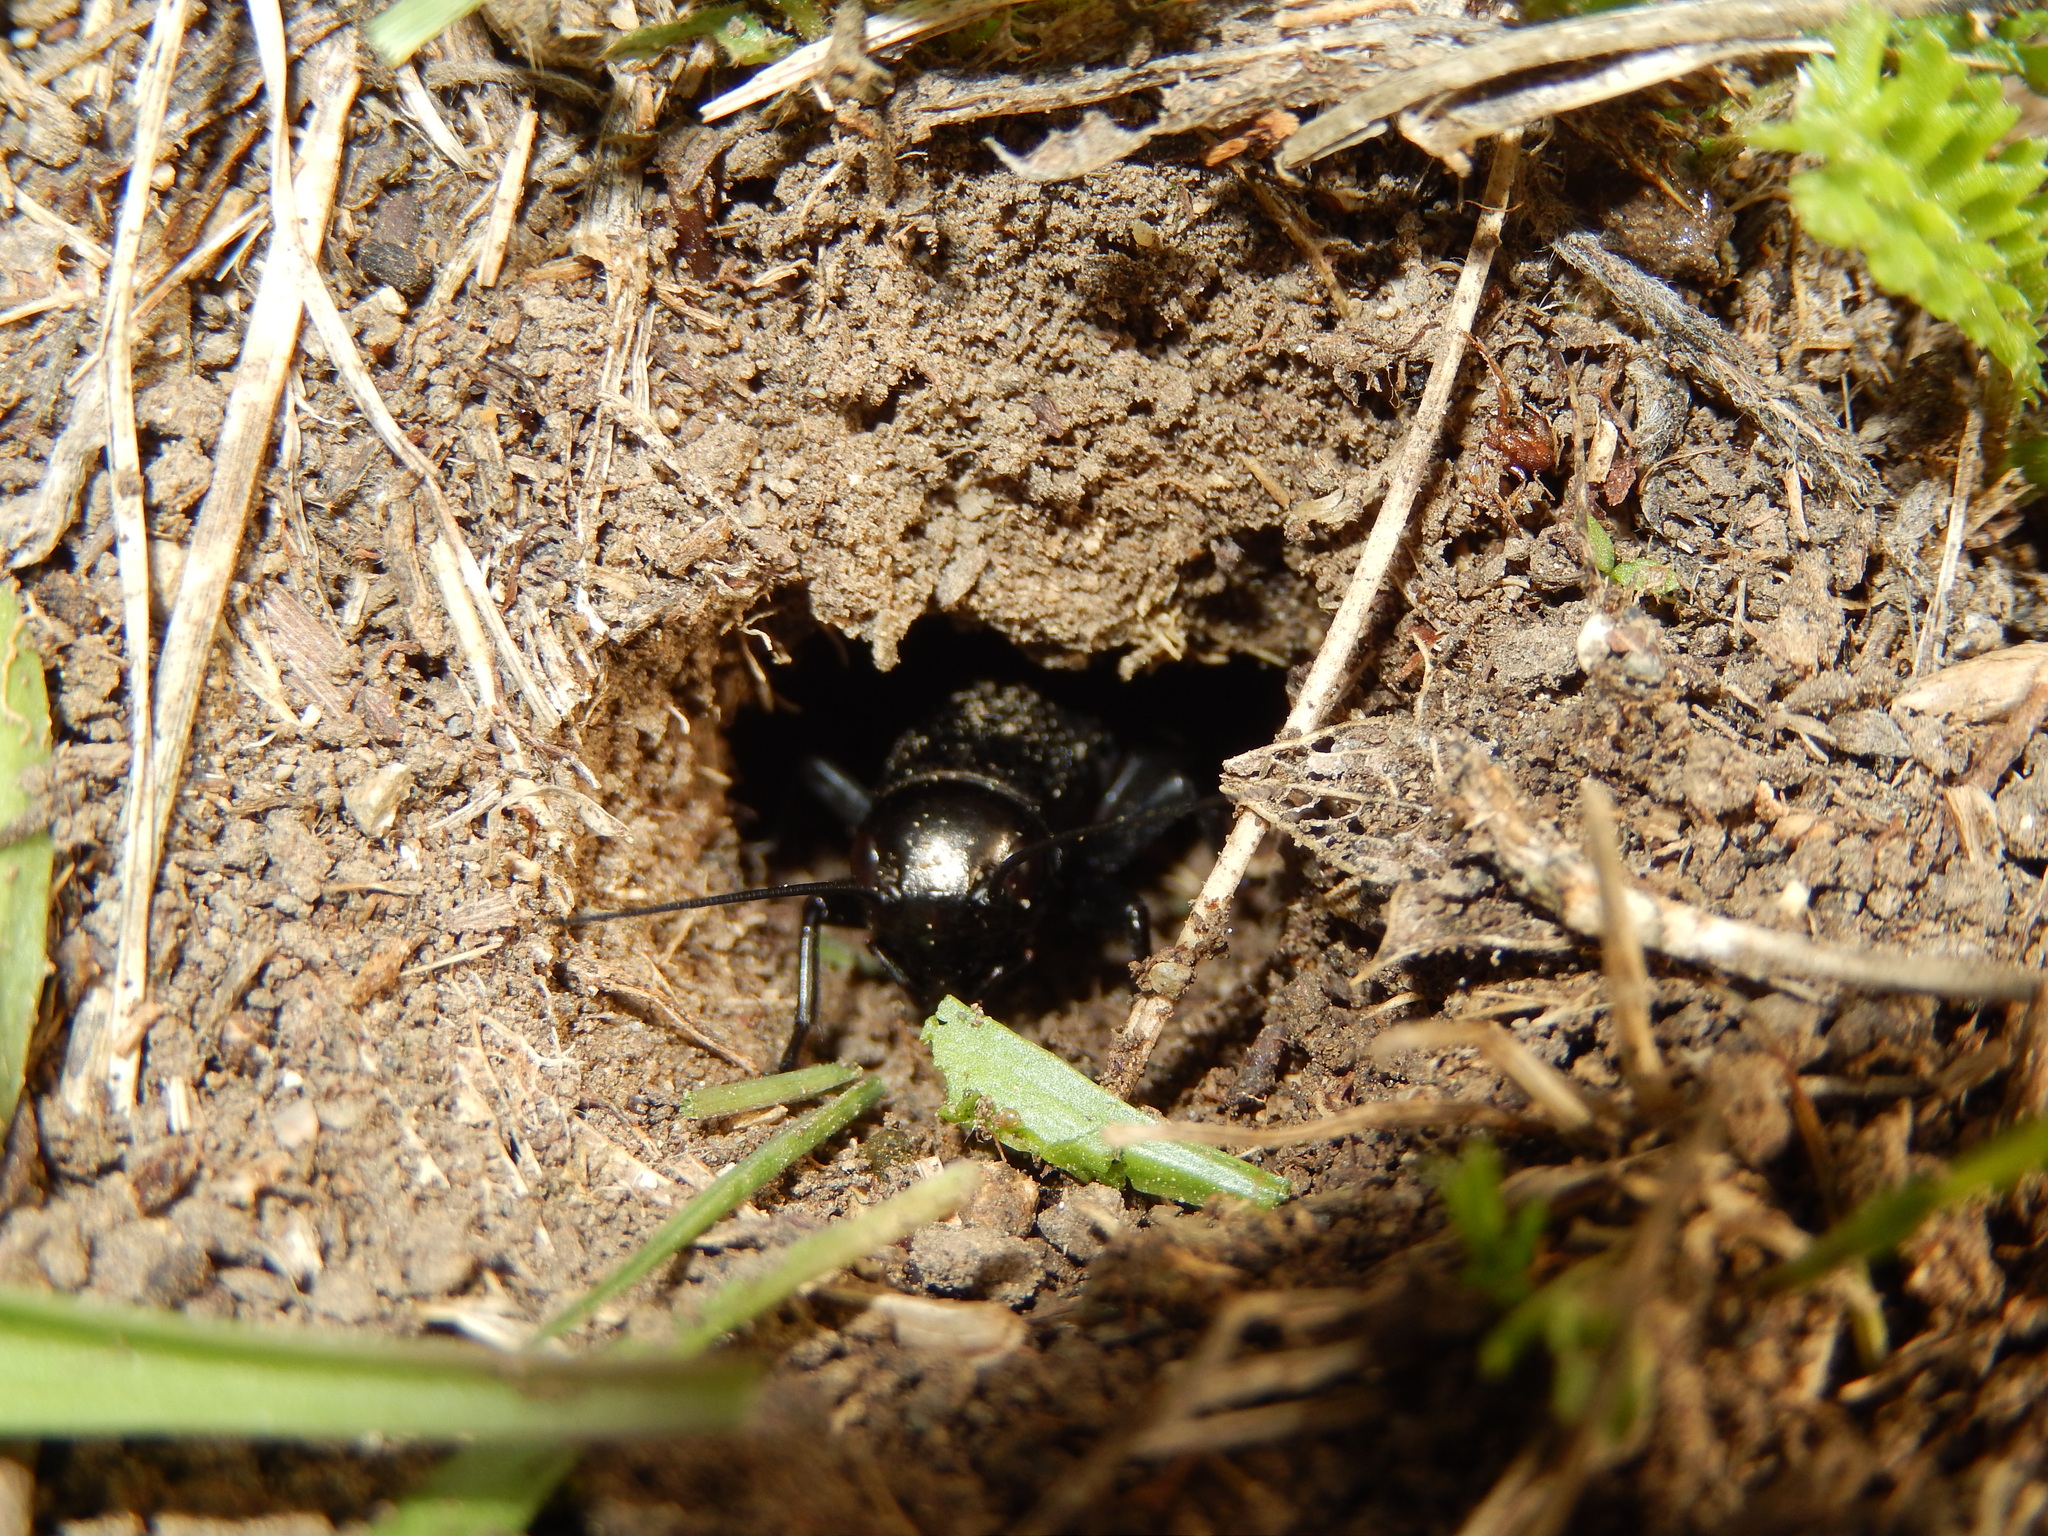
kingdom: Animalia
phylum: Arthropoda
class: Insecta
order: Orthoptera
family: Gryllidae
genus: Gryllus
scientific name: Gryllus campestris
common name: Field cricket
